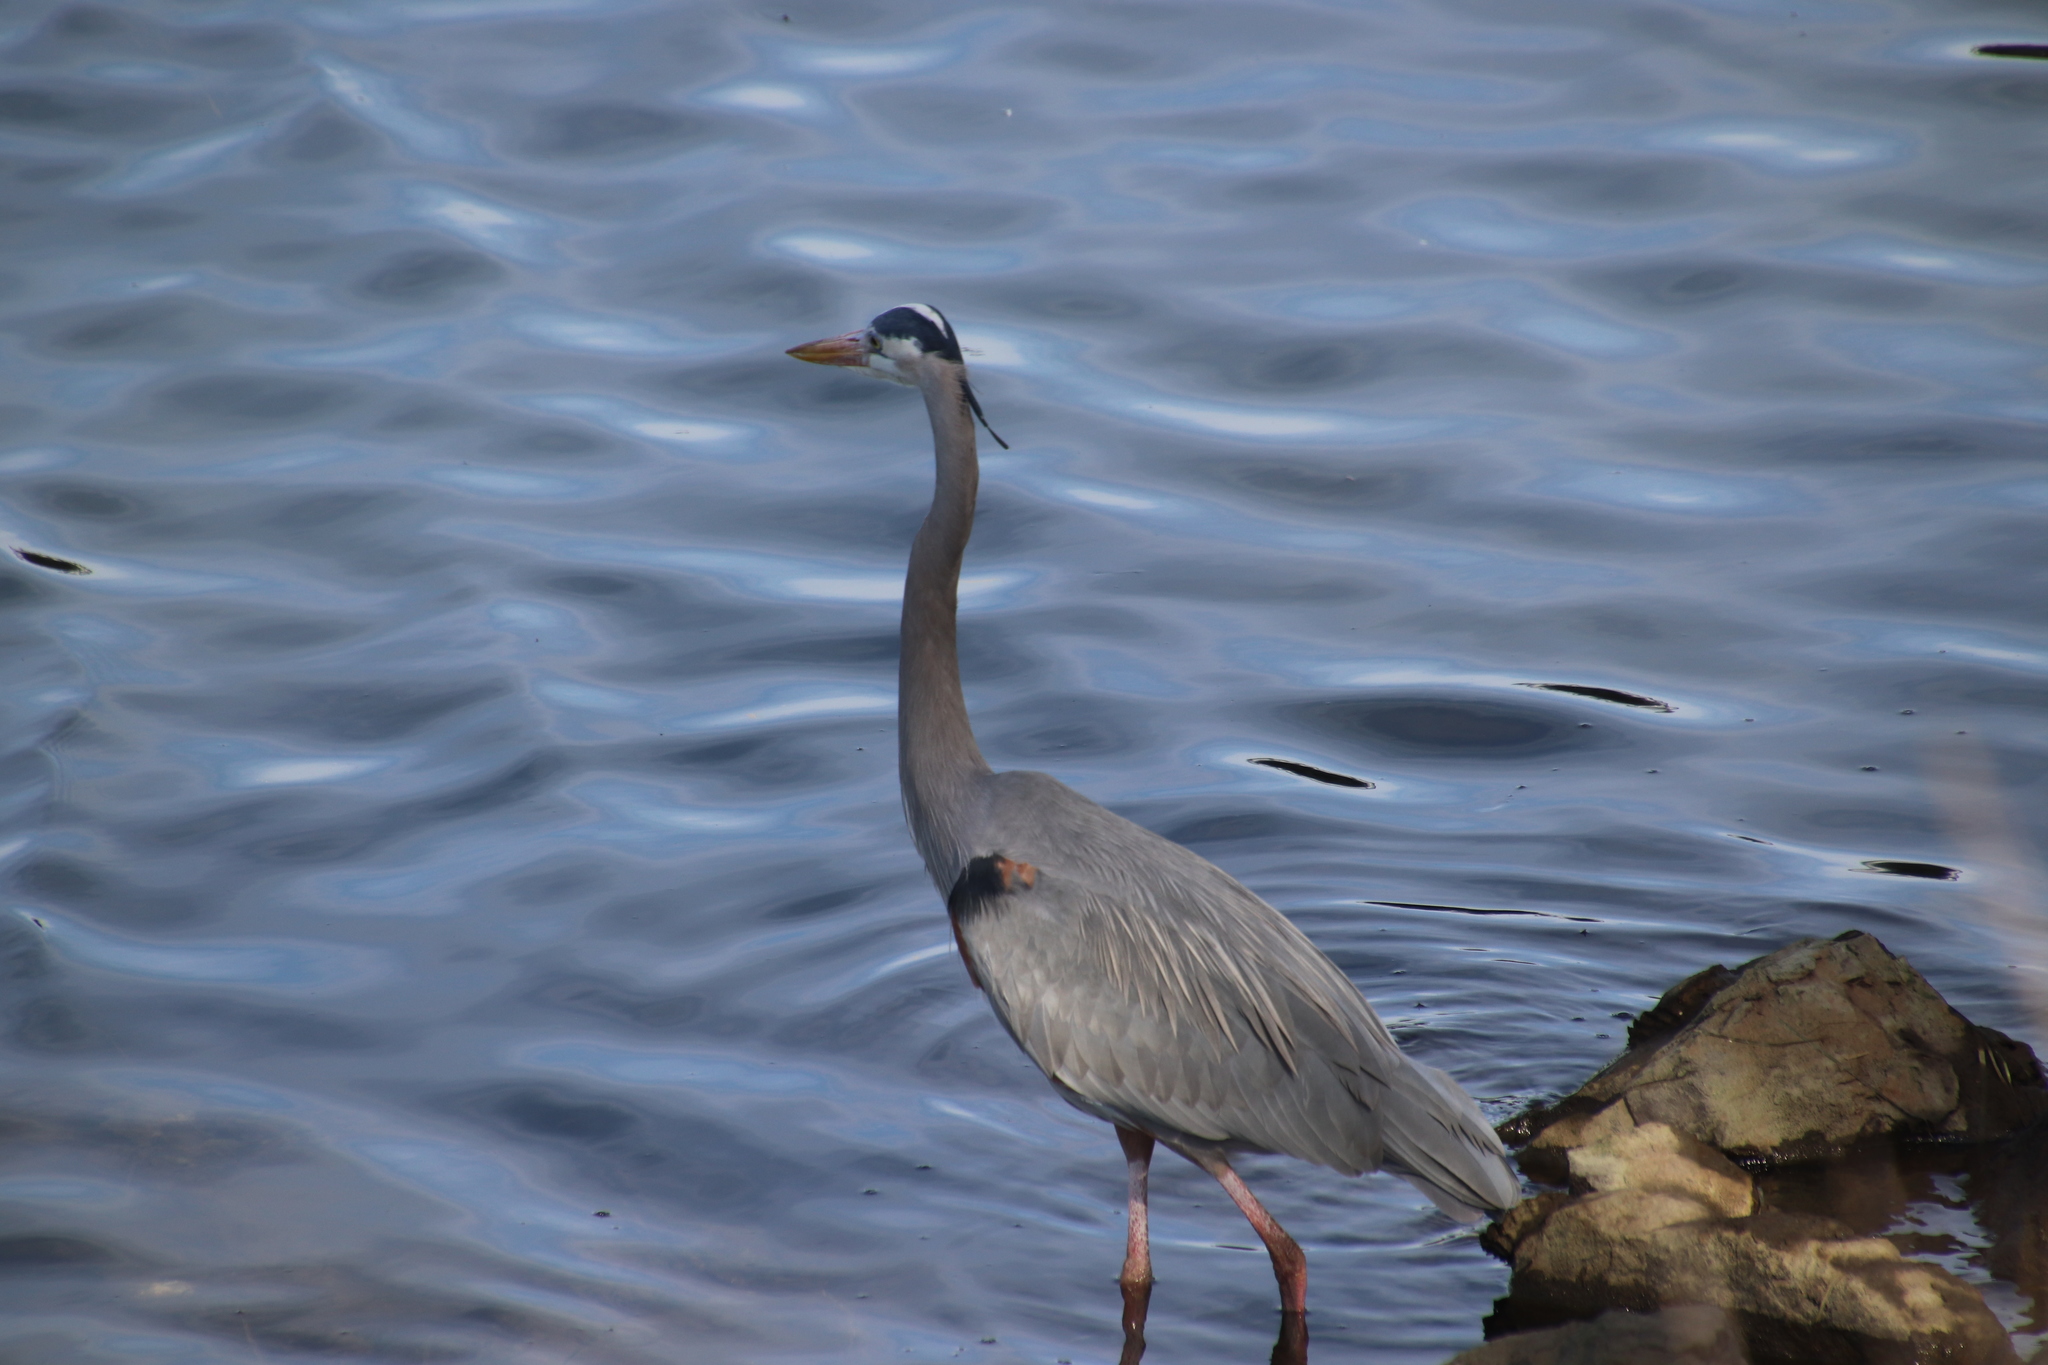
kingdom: Animalia
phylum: Chordata
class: Aves
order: Pelecaniformes
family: Ardeidae
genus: Ardea
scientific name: Ardea herodias
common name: Great blue heron
